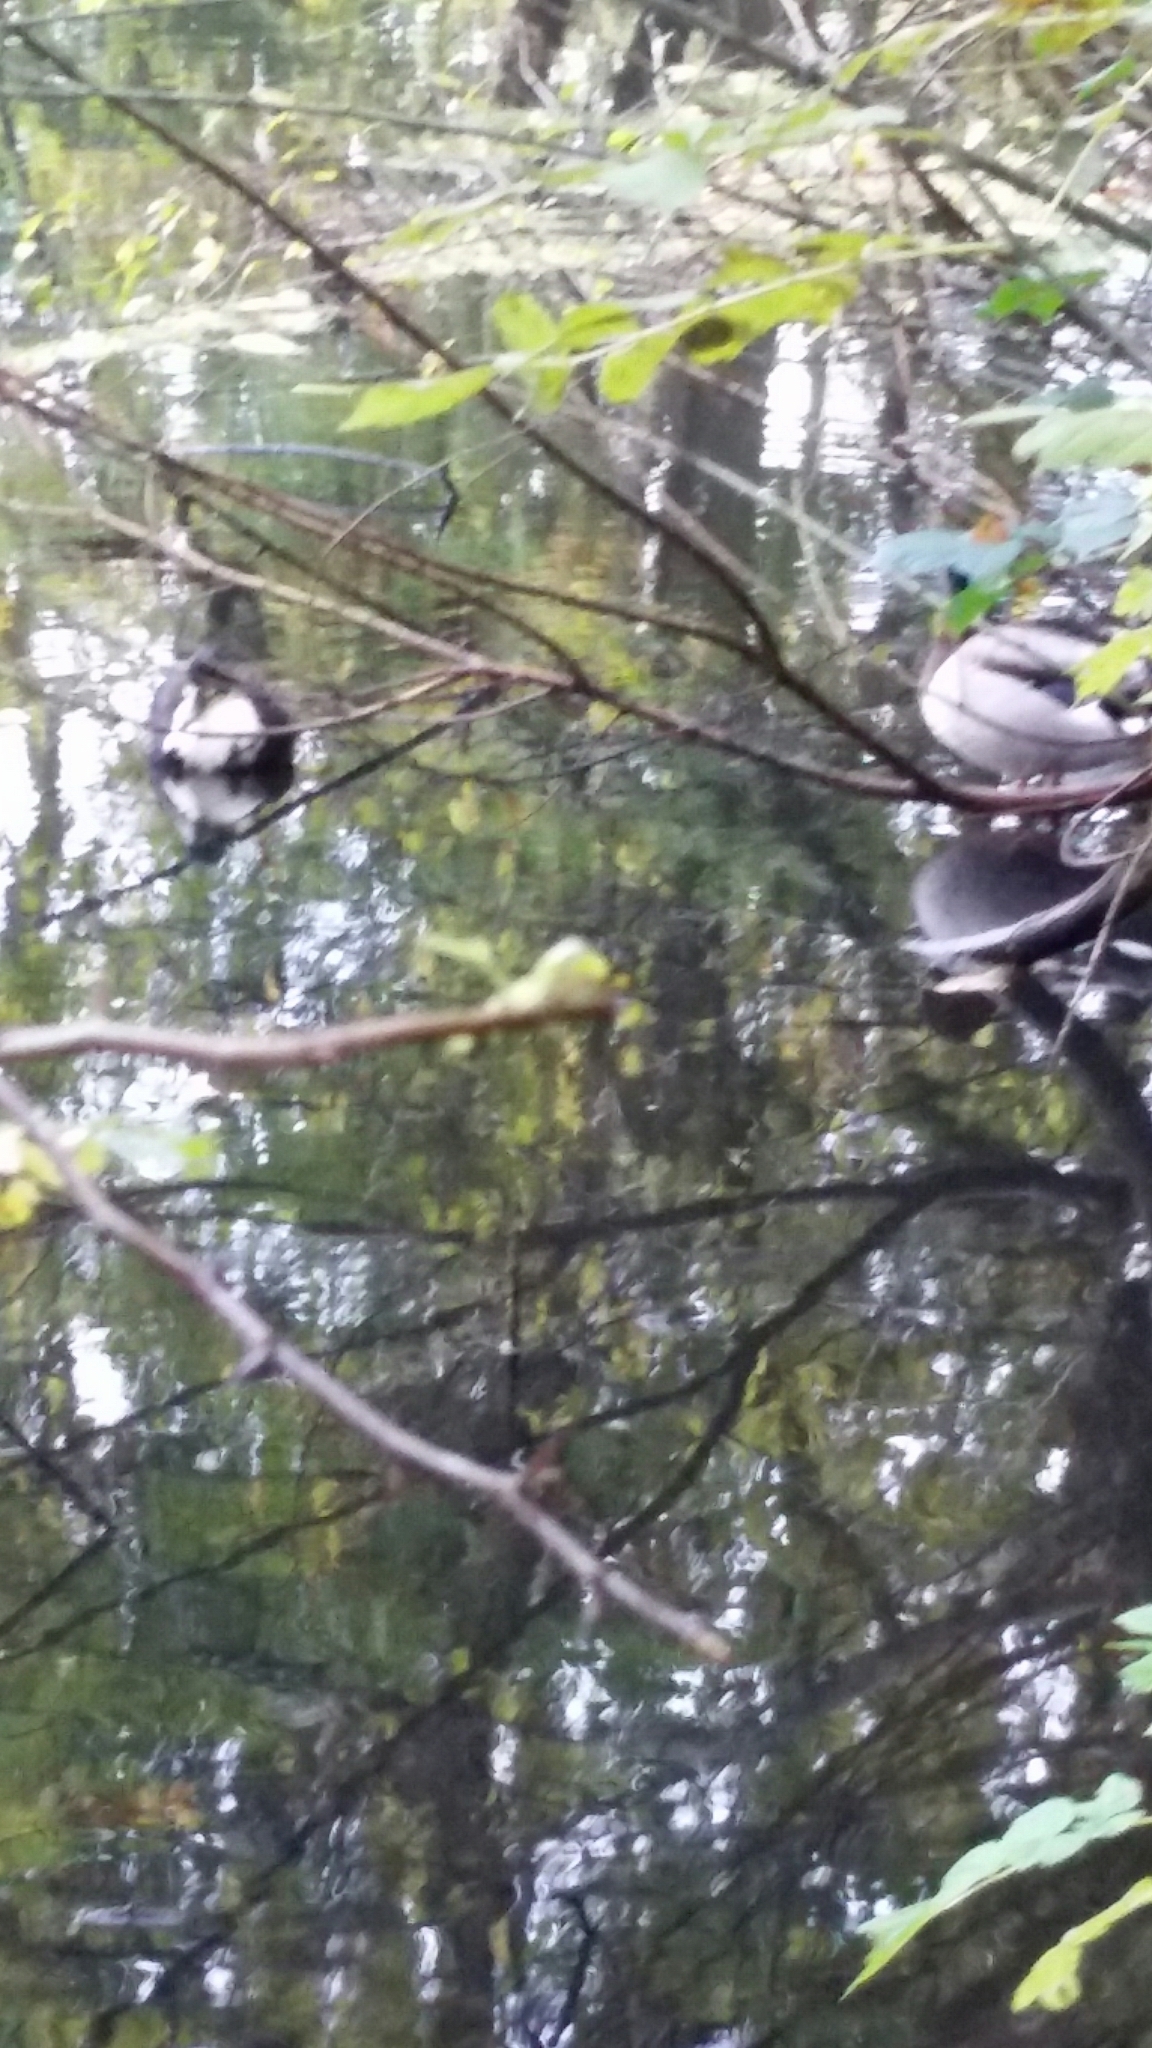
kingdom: Animalia
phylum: Chordata
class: Aves
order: Anseriformes
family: Anatidae
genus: Anas
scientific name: Anas platyrhynchos
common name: Mallard
